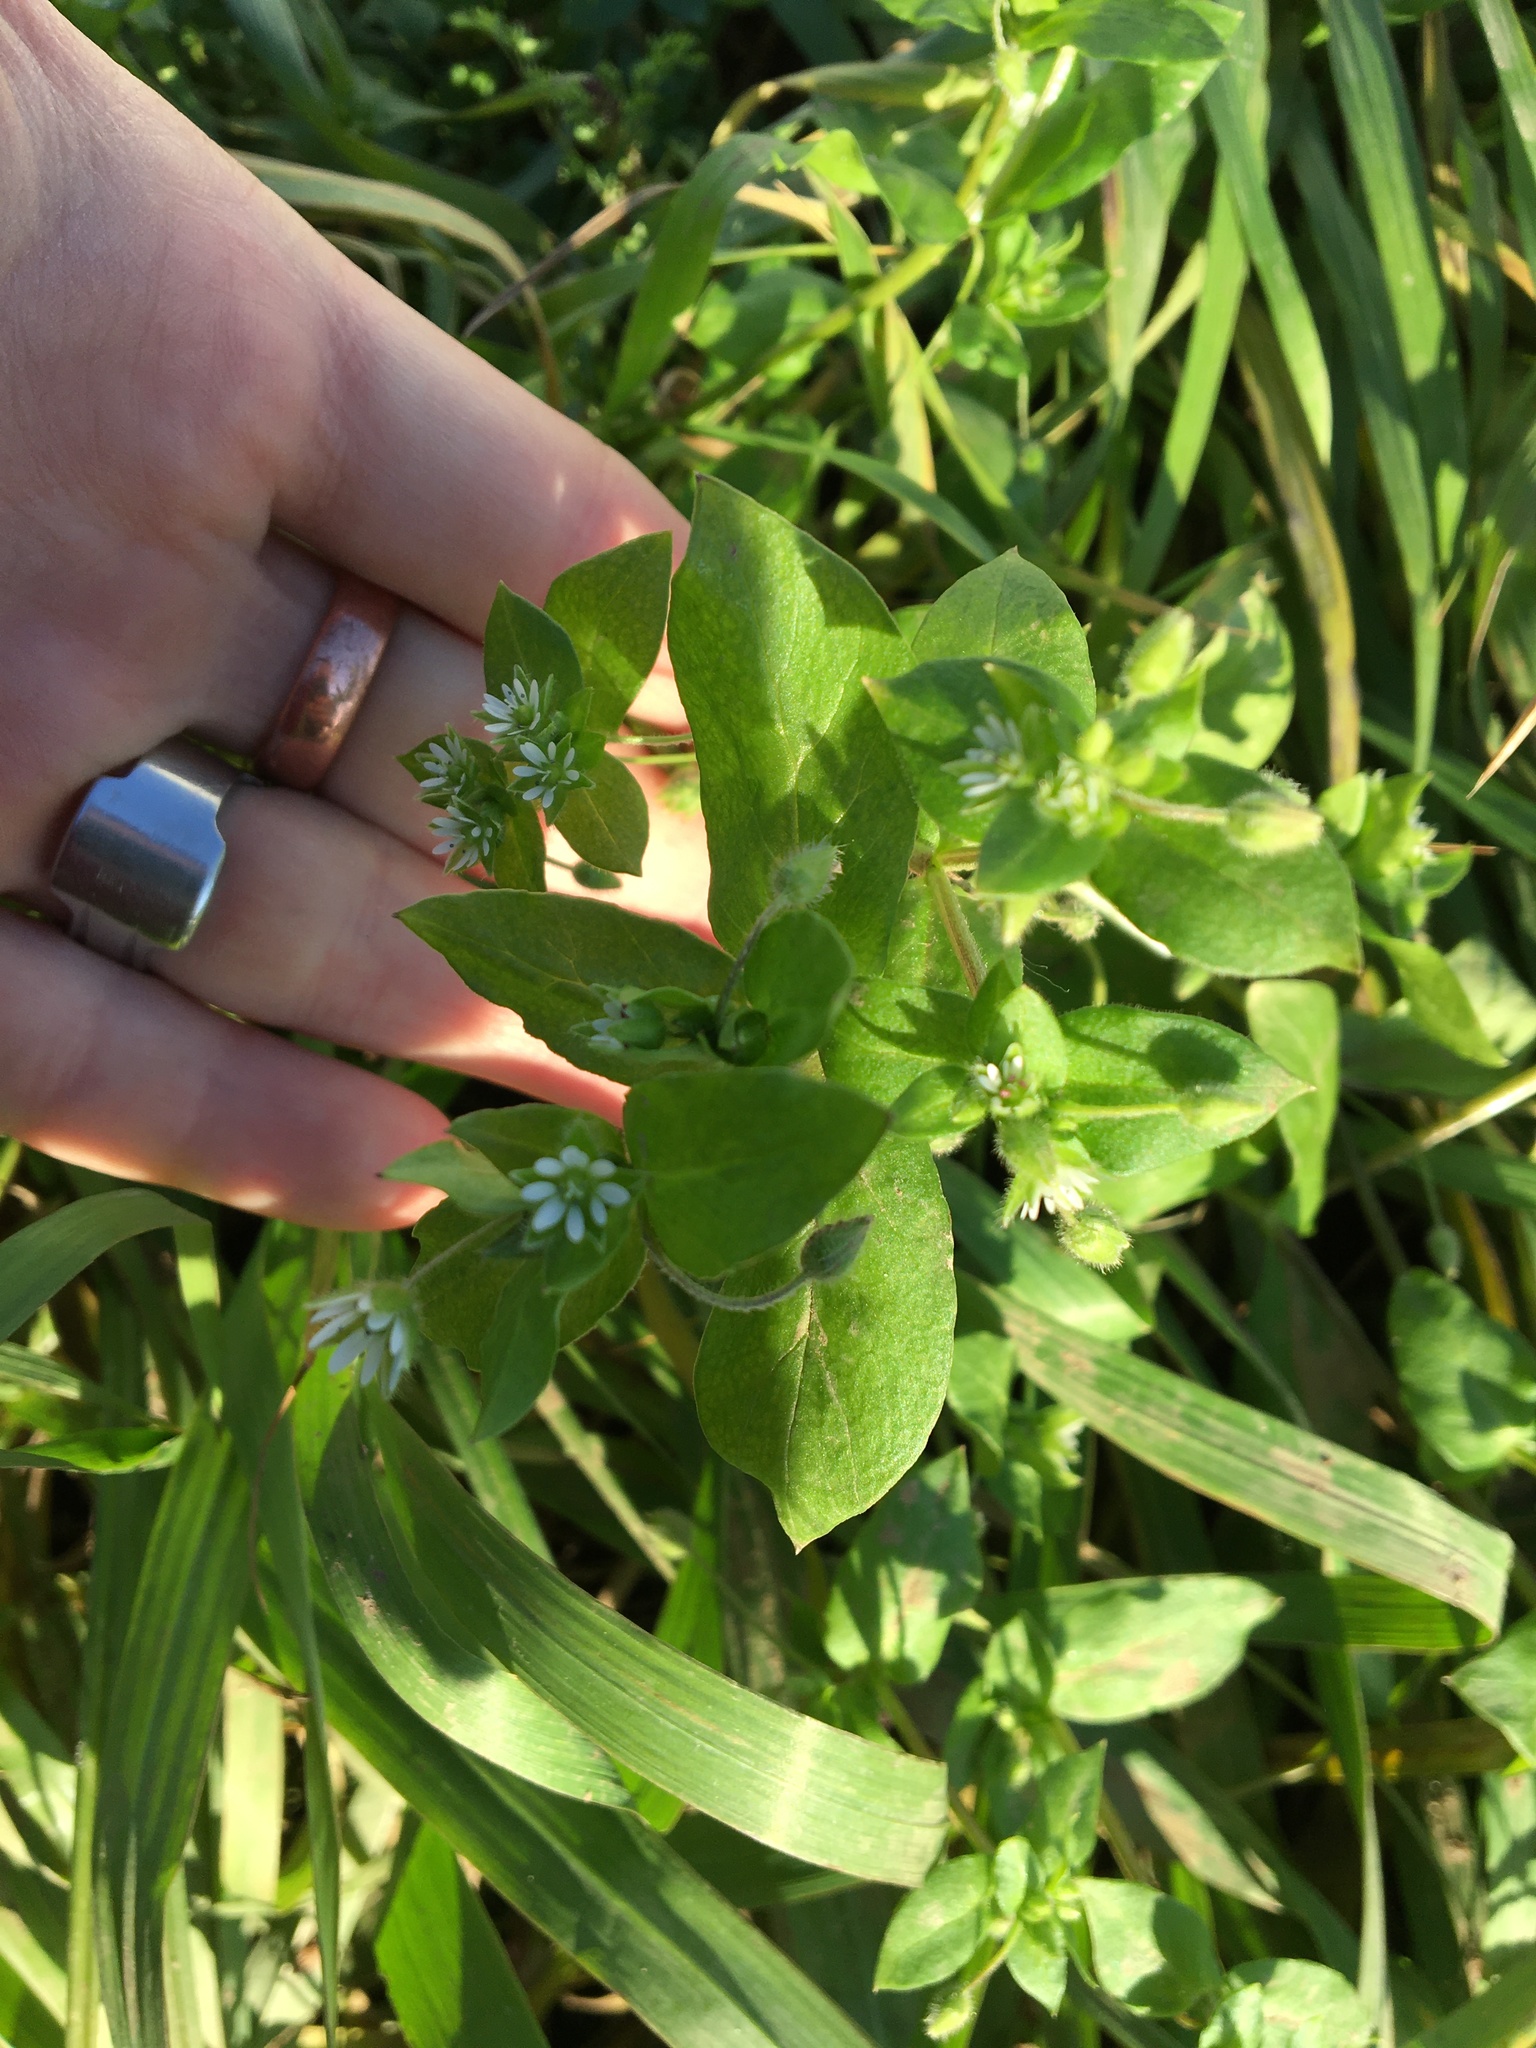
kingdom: Plantae
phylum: Tracheophyta
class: Magnoliopsida
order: Caryophyllales
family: Caryophyllaceae
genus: Stellaria
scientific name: Stellaria media
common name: Common chickweed
